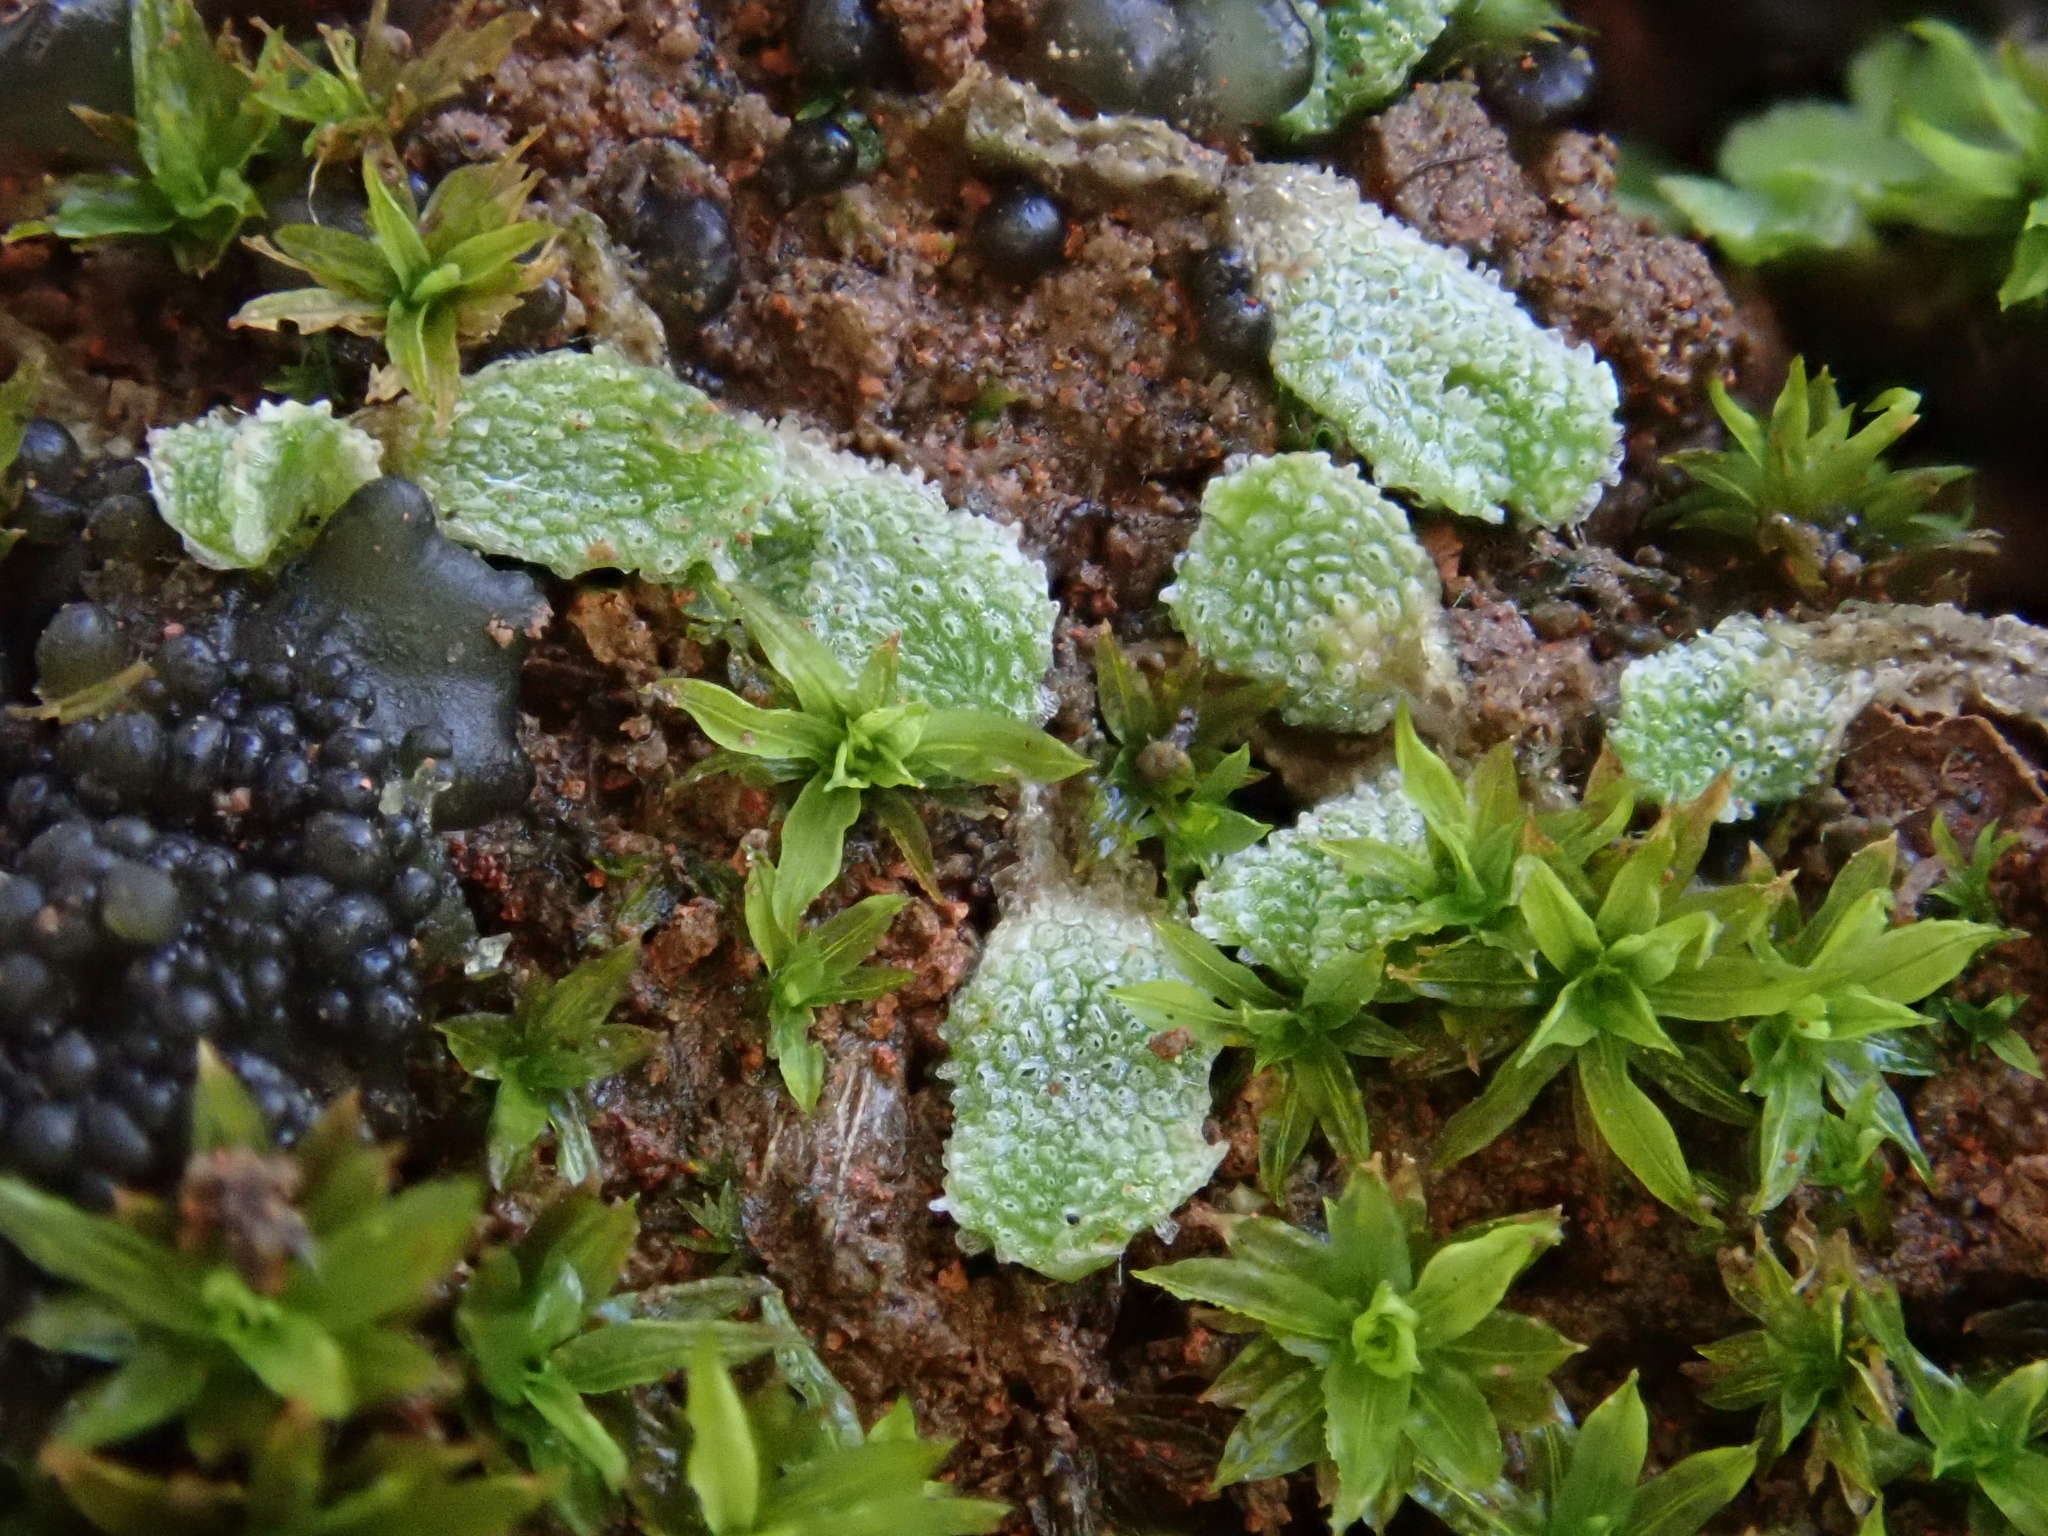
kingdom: Plantae
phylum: Marchantiophyta
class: Marchantiopsida
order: Marchantiales
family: Corsiniaceae
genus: Exormotheca
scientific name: Exormotheca pustulosa
